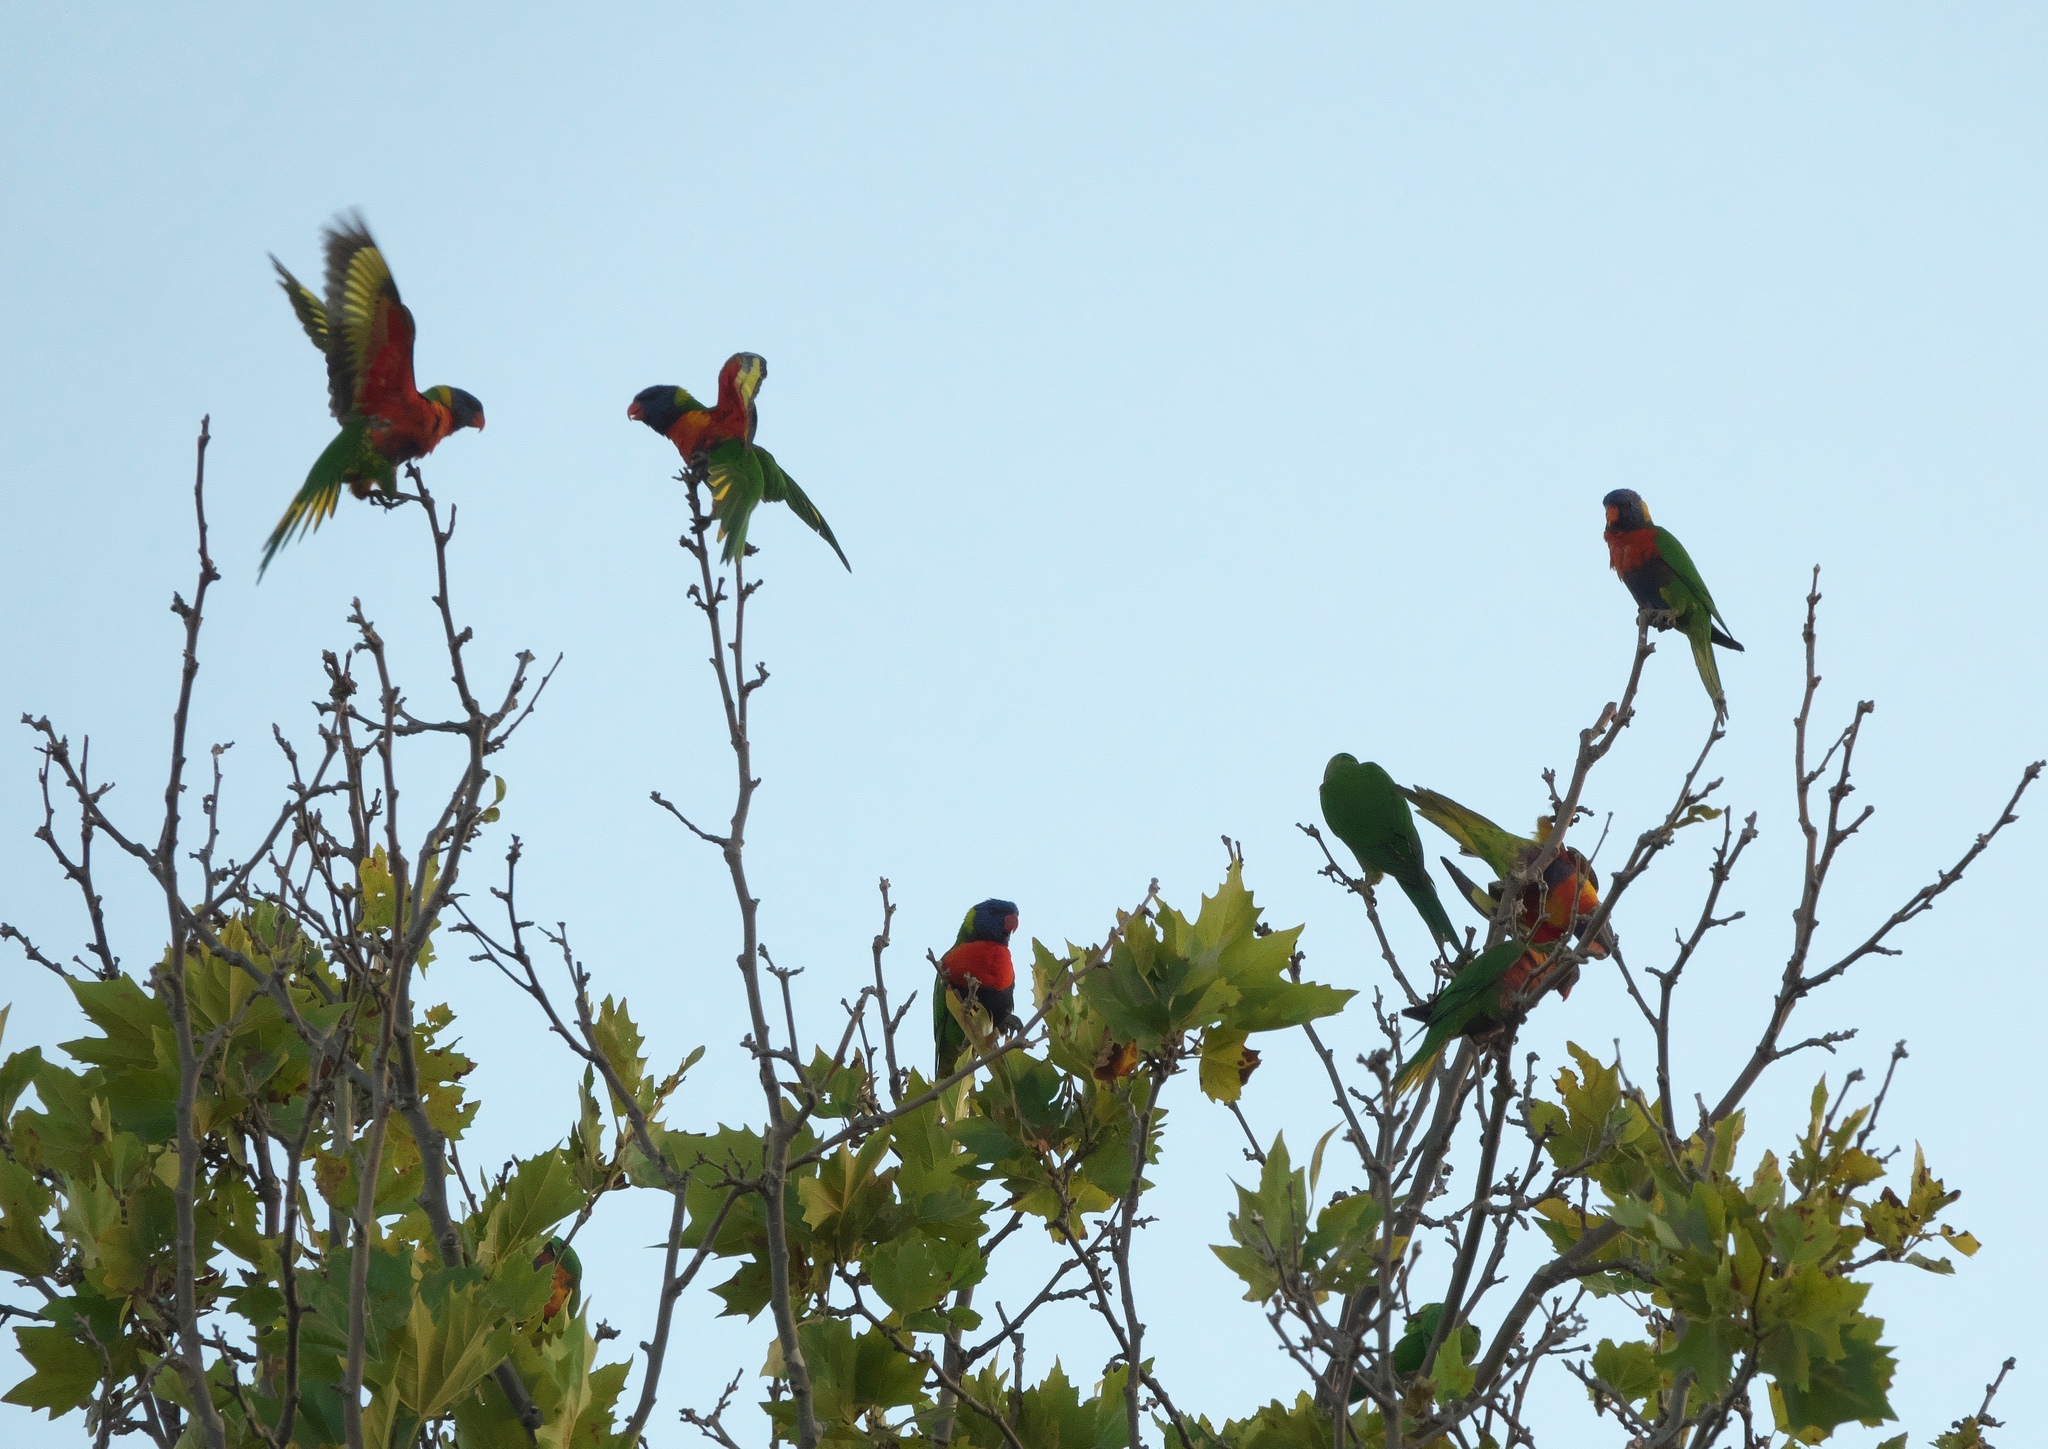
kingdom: Animalia
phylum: Chordata
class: Aves
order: Psittaciformes
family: Psittacidae
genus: Trichoglossus
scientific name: Trichoglossus haematodus
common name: Coconut lorikeet
